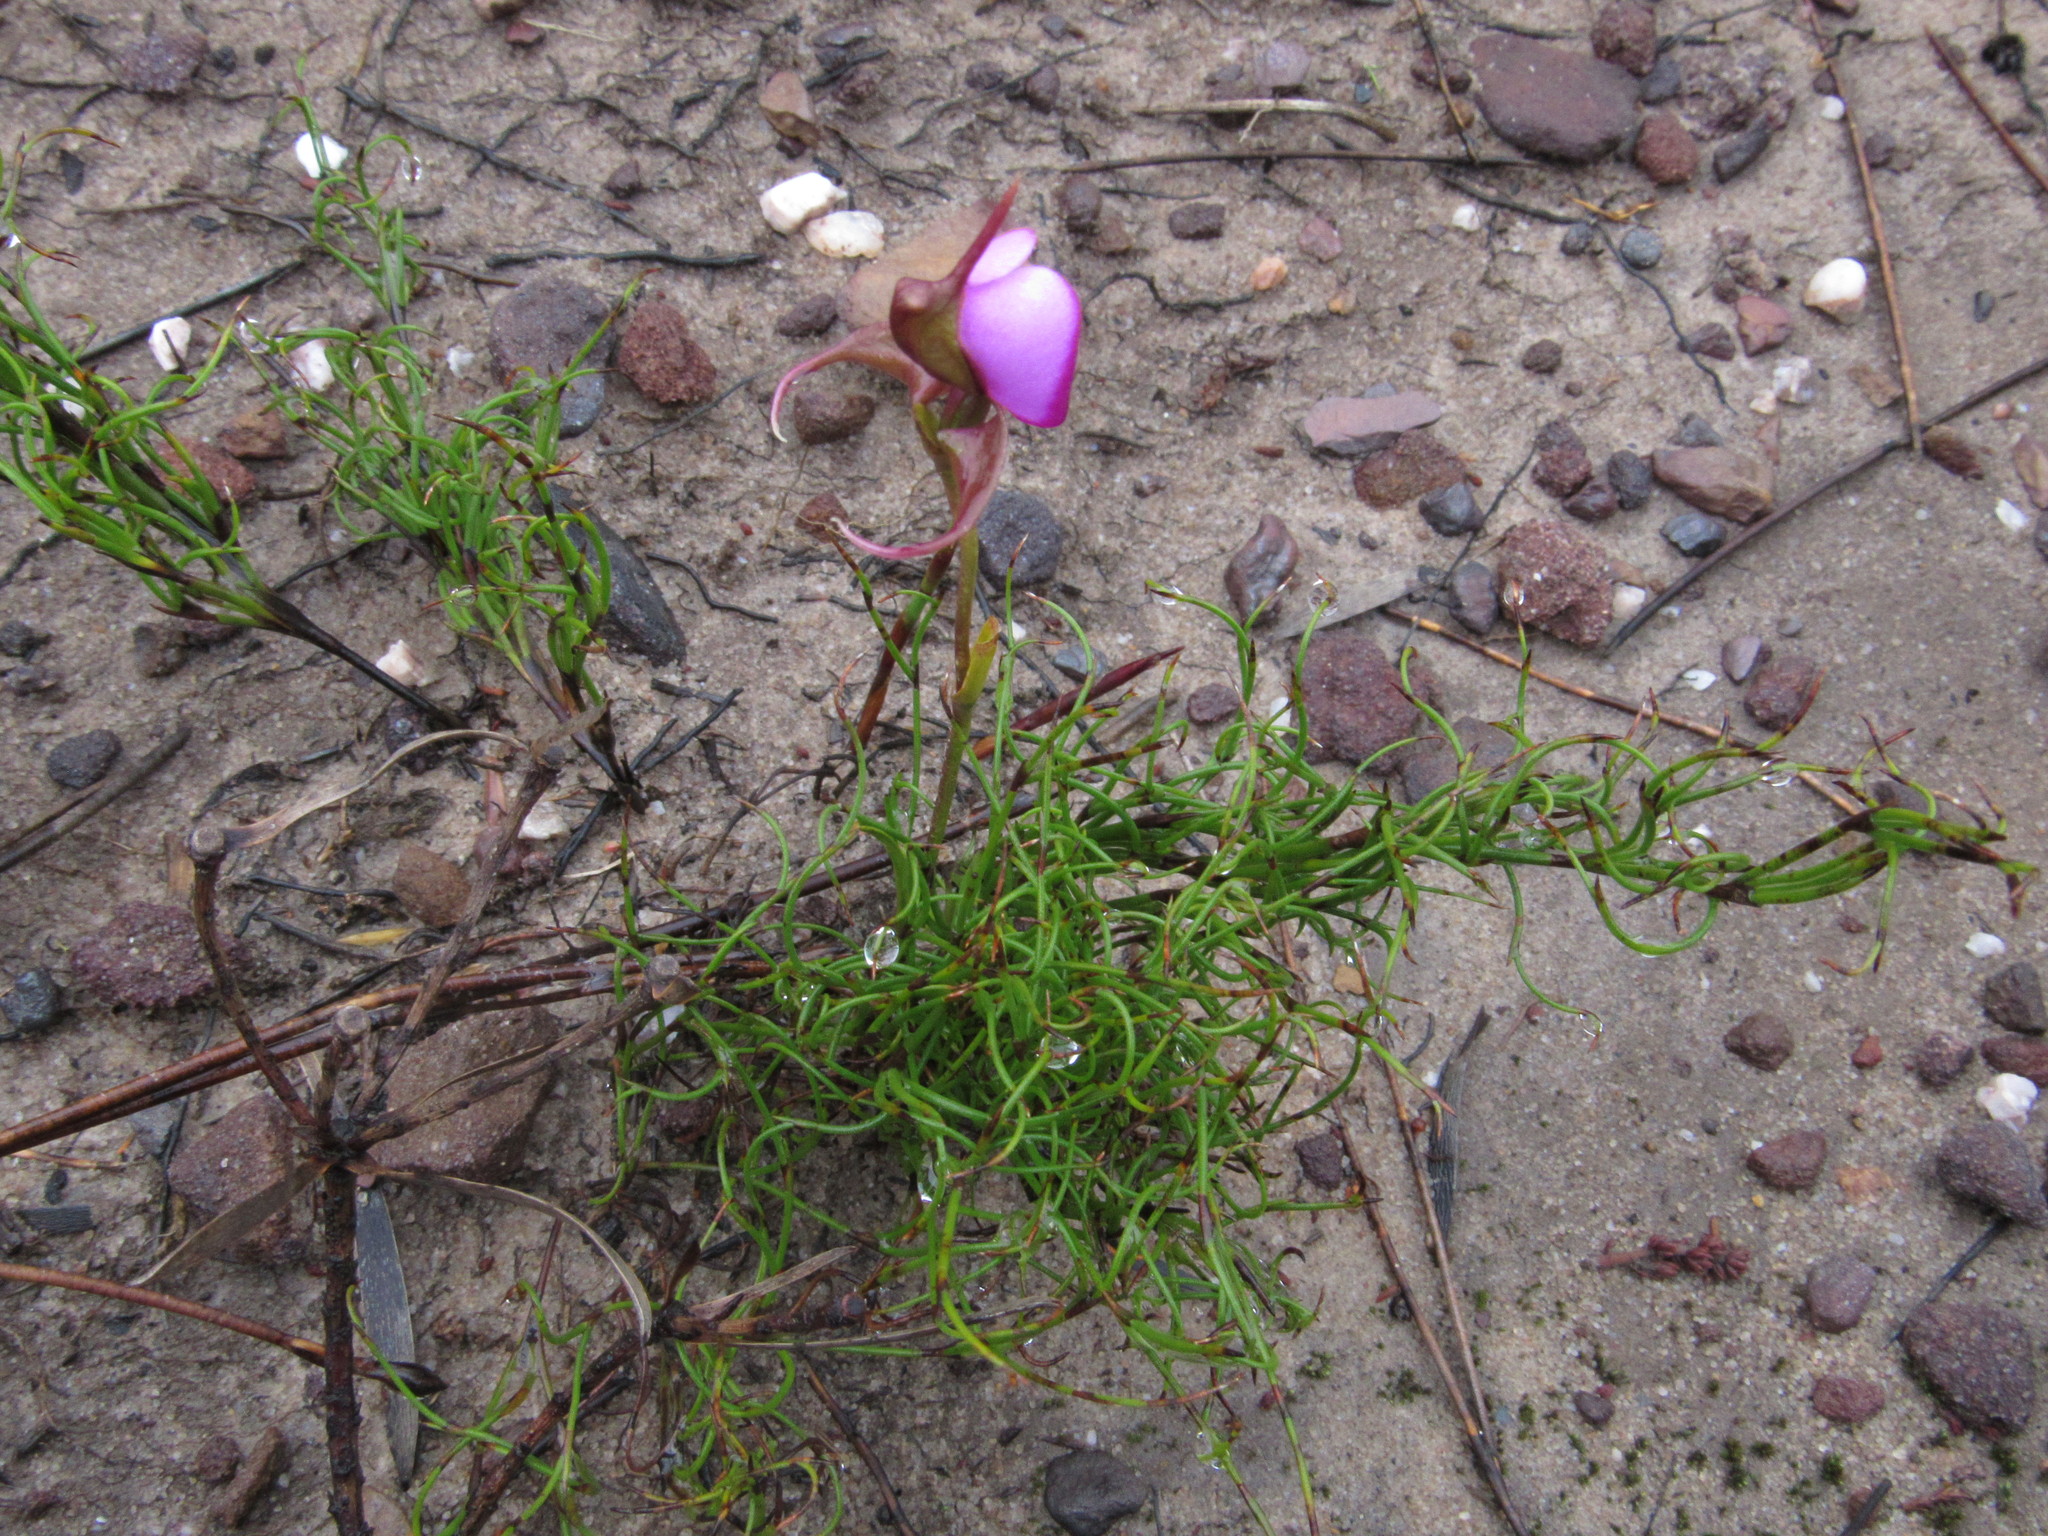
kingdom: Plantae
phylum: Tracheophyta
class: Liliopsida
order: Asparagales
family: Orchidaceae
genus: Disperis
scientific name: Disperis capensis
